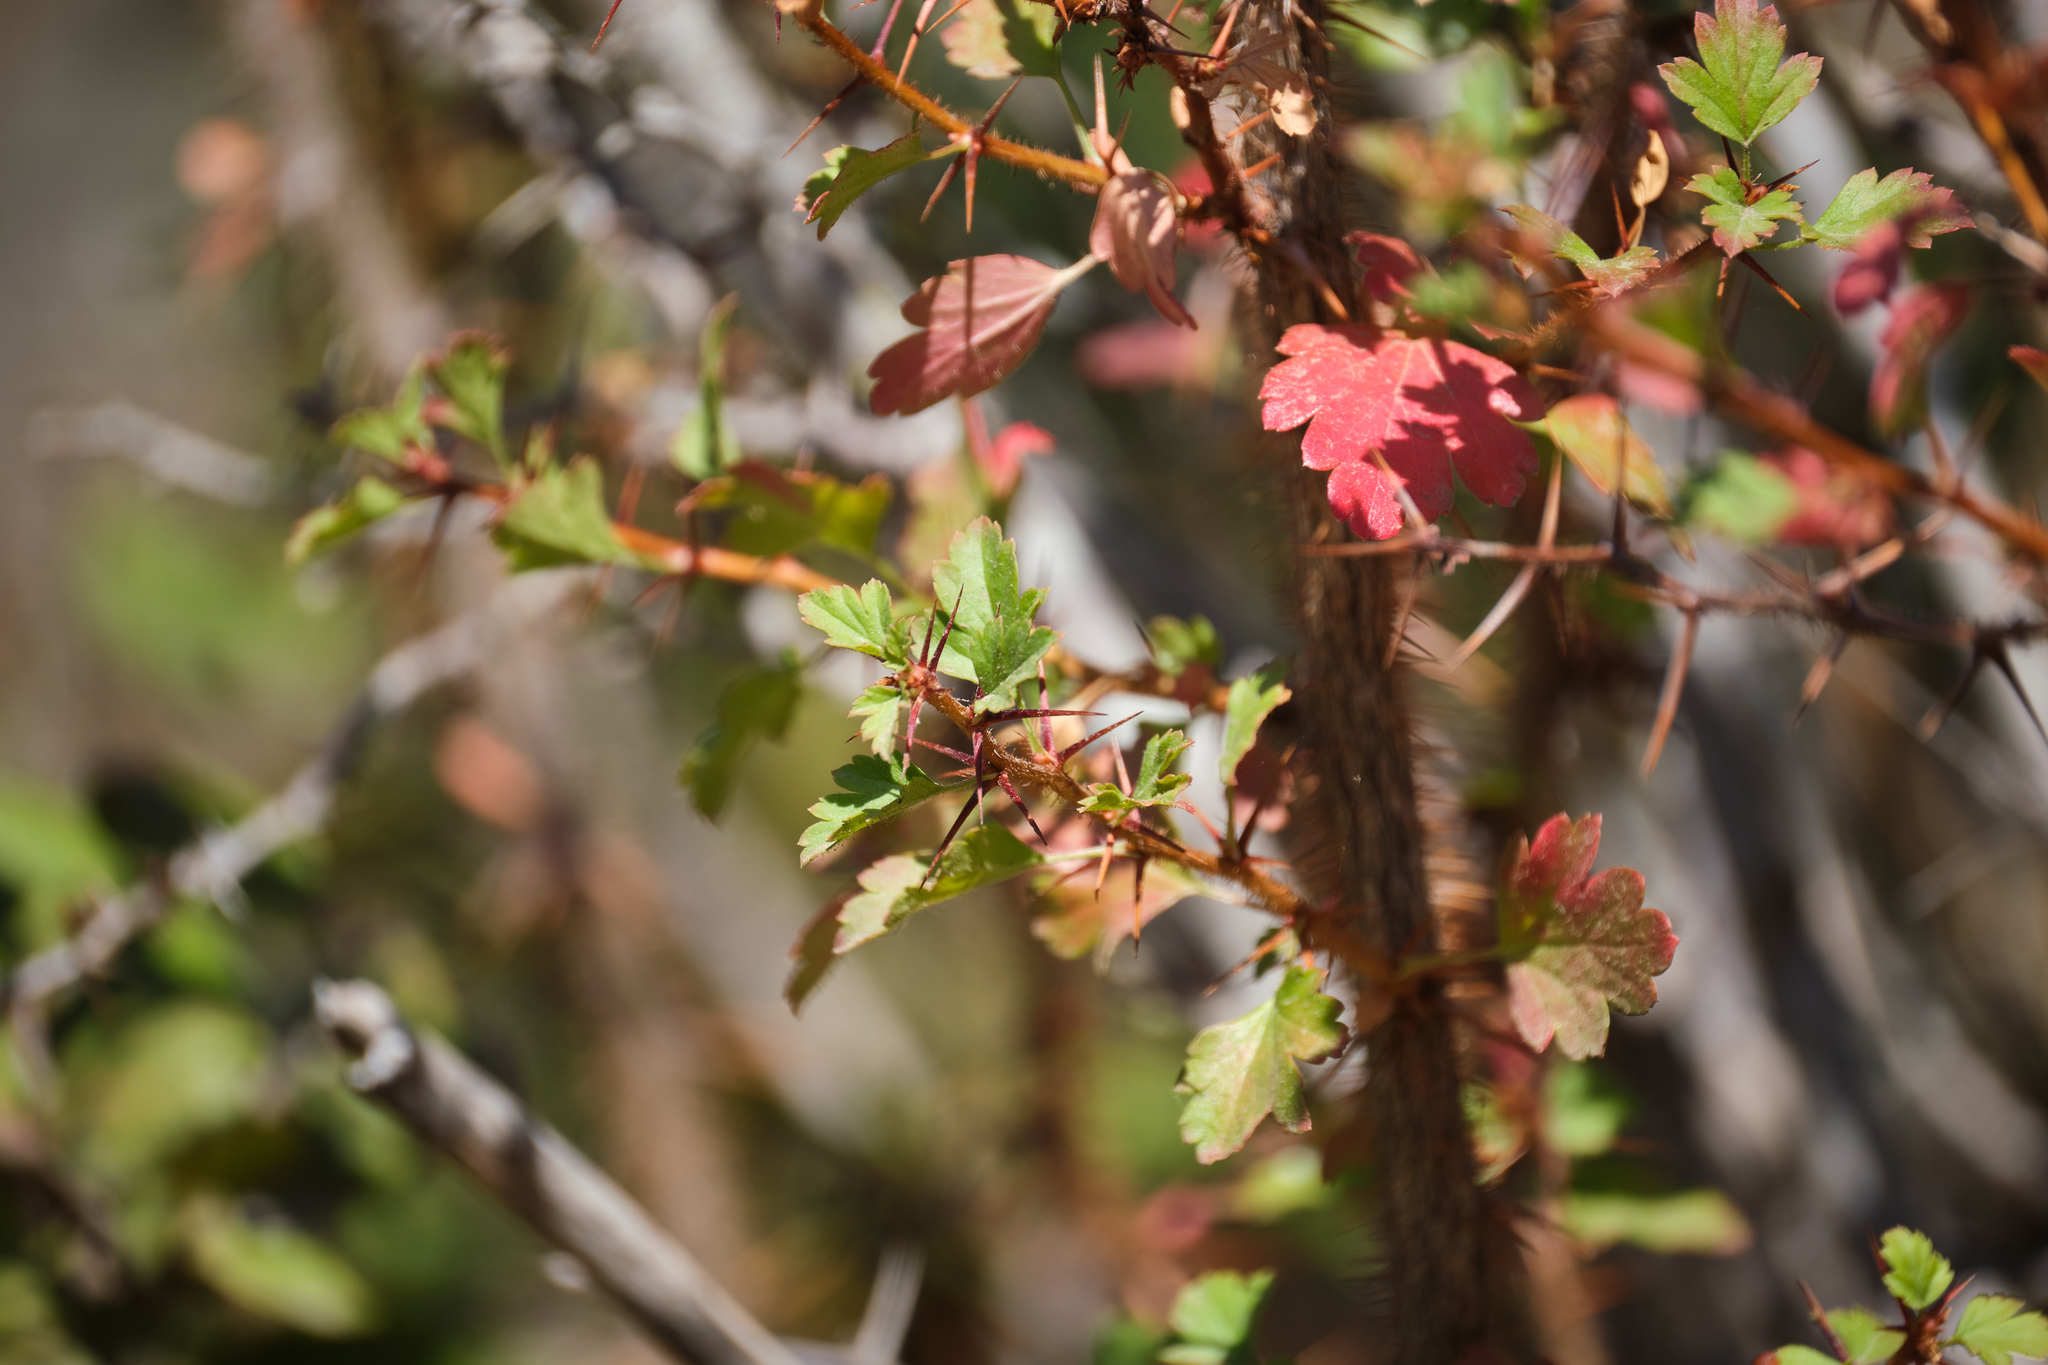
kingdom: Plantae
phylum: Tracheophyta
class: Magnoliopsida
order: Saxifragales
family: Grossulariaceae
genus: Ribes
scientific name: Ribes speciosum
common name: Fuchsia-flower gooseberry
